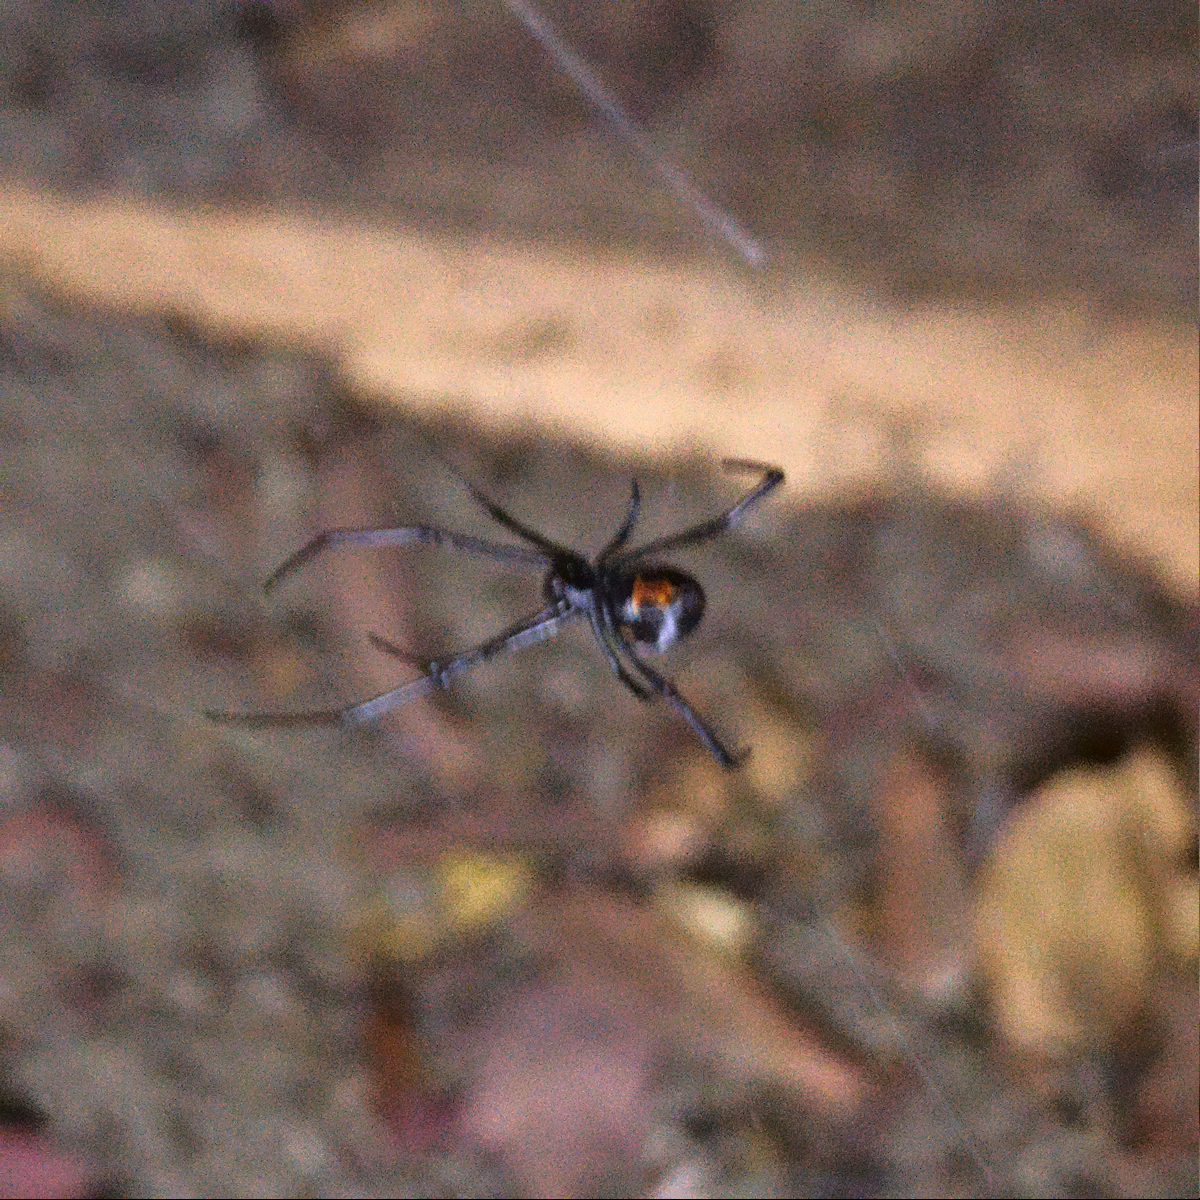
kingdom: Animalia
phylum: Arthropoda
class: Arachnida
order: Araneae
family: Theridiidae
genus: Latrodectus
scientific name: Latrodectus hasselti
